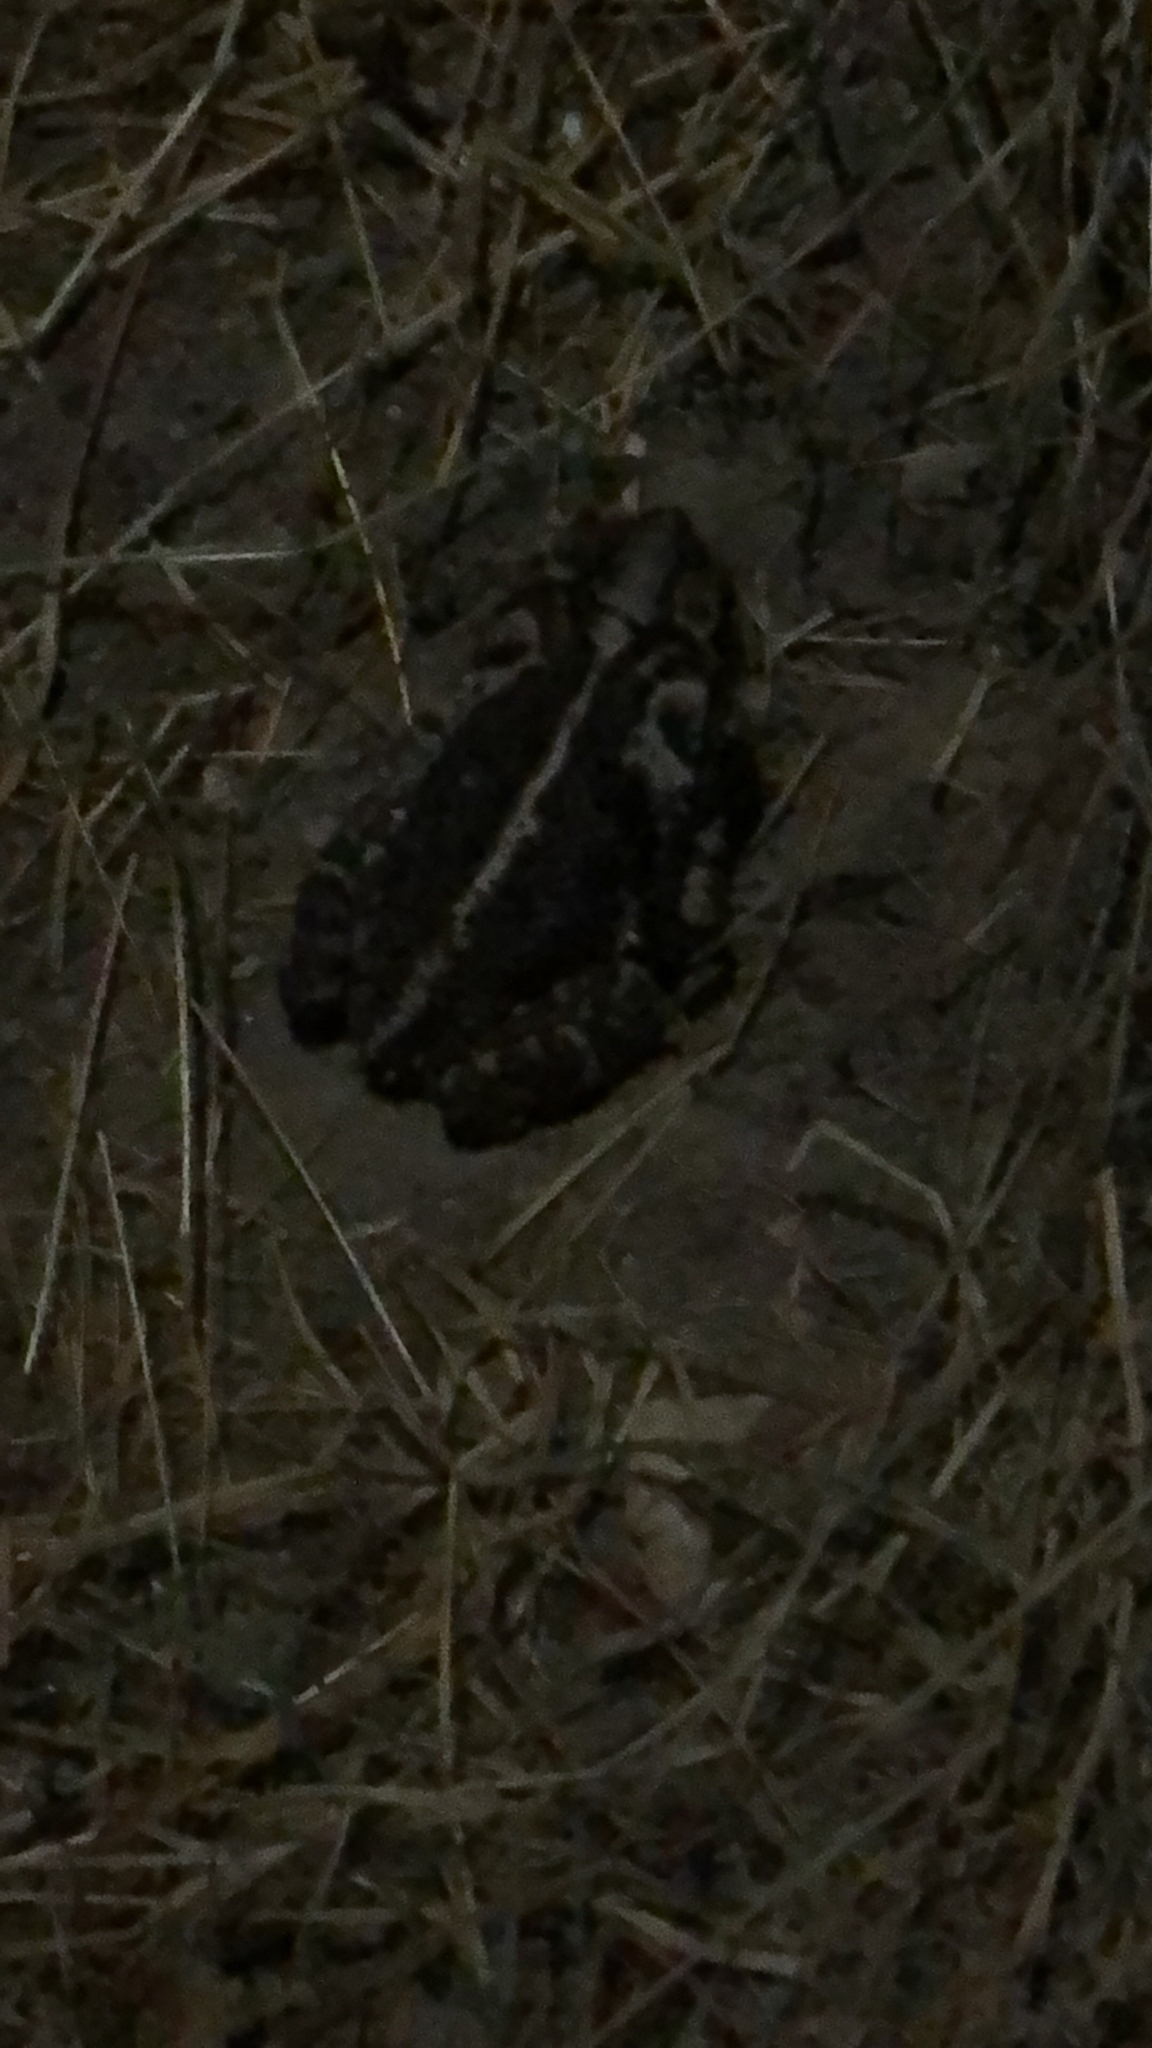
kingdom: Animalia
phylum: Chordata
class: Amphibia
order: Anura
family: Bufonidae
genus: Incilius
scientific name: Incilius nebulifer
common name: Gulf coast toad
